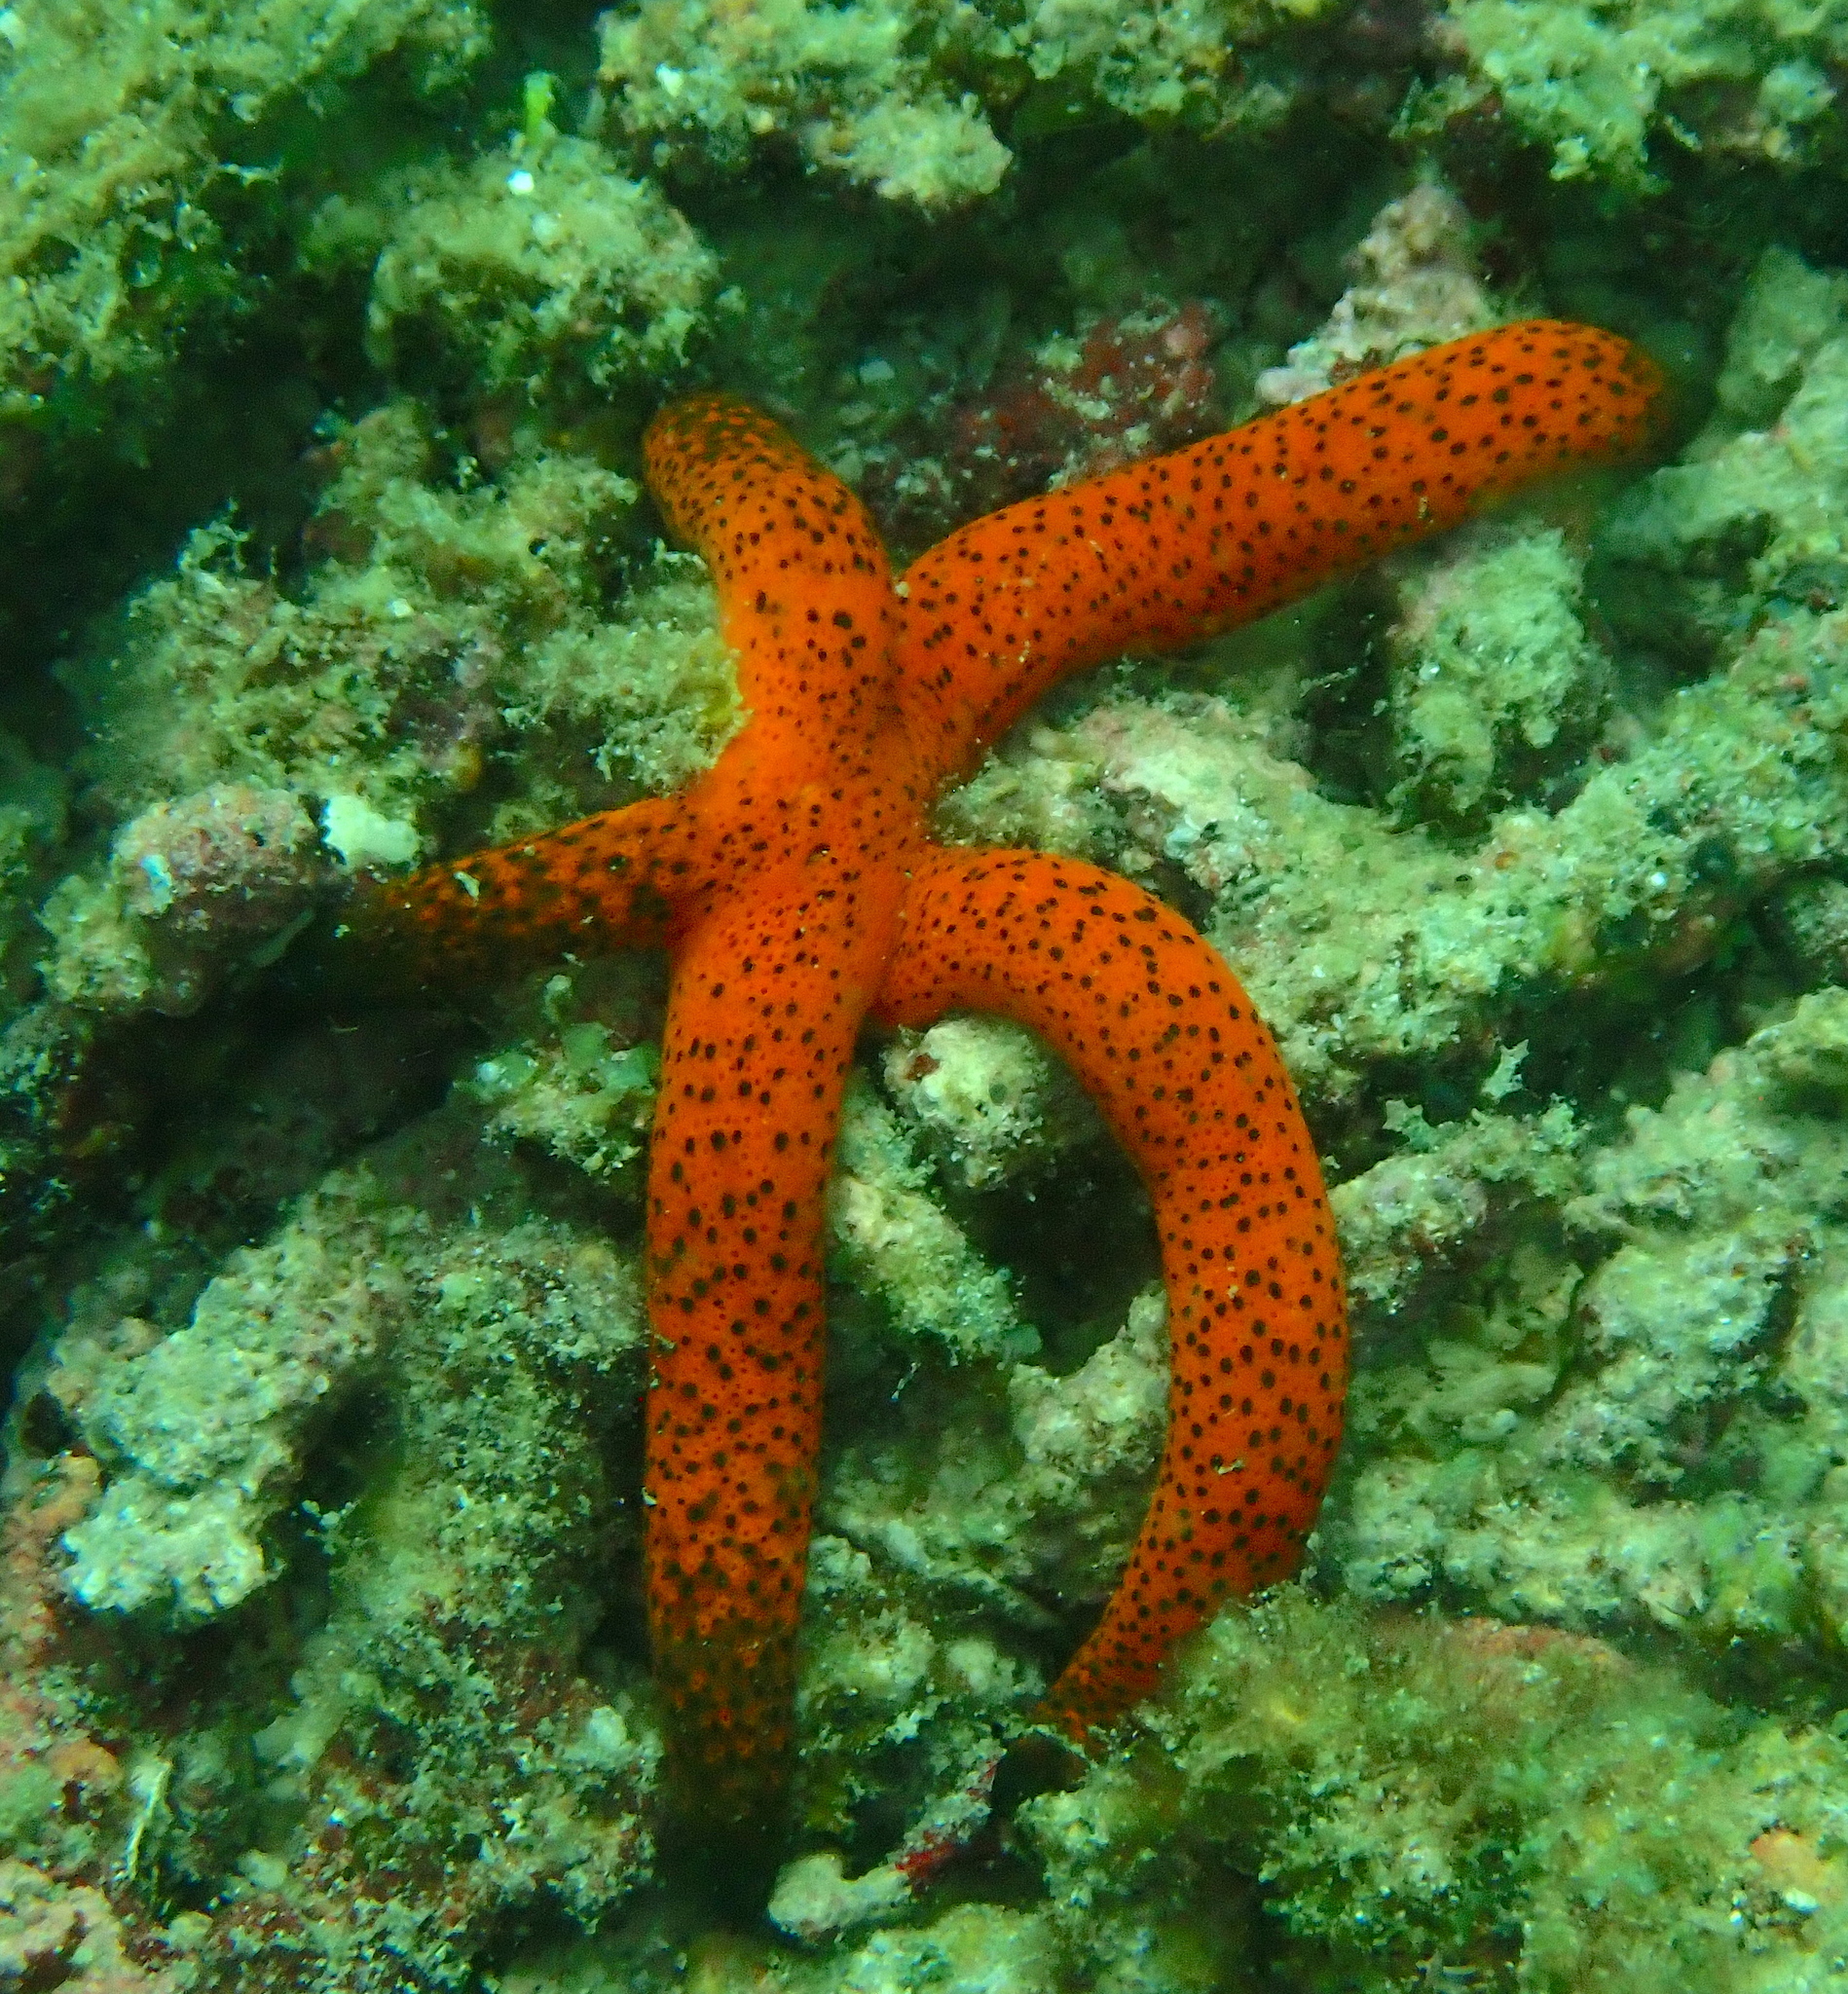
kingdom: Animalia
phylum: Echinodermata
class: Asteroidea
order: Spinulosida
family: Echinasteridae
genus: Echinaster
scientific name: Echinaster luzonicus
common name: Luzon seastar
